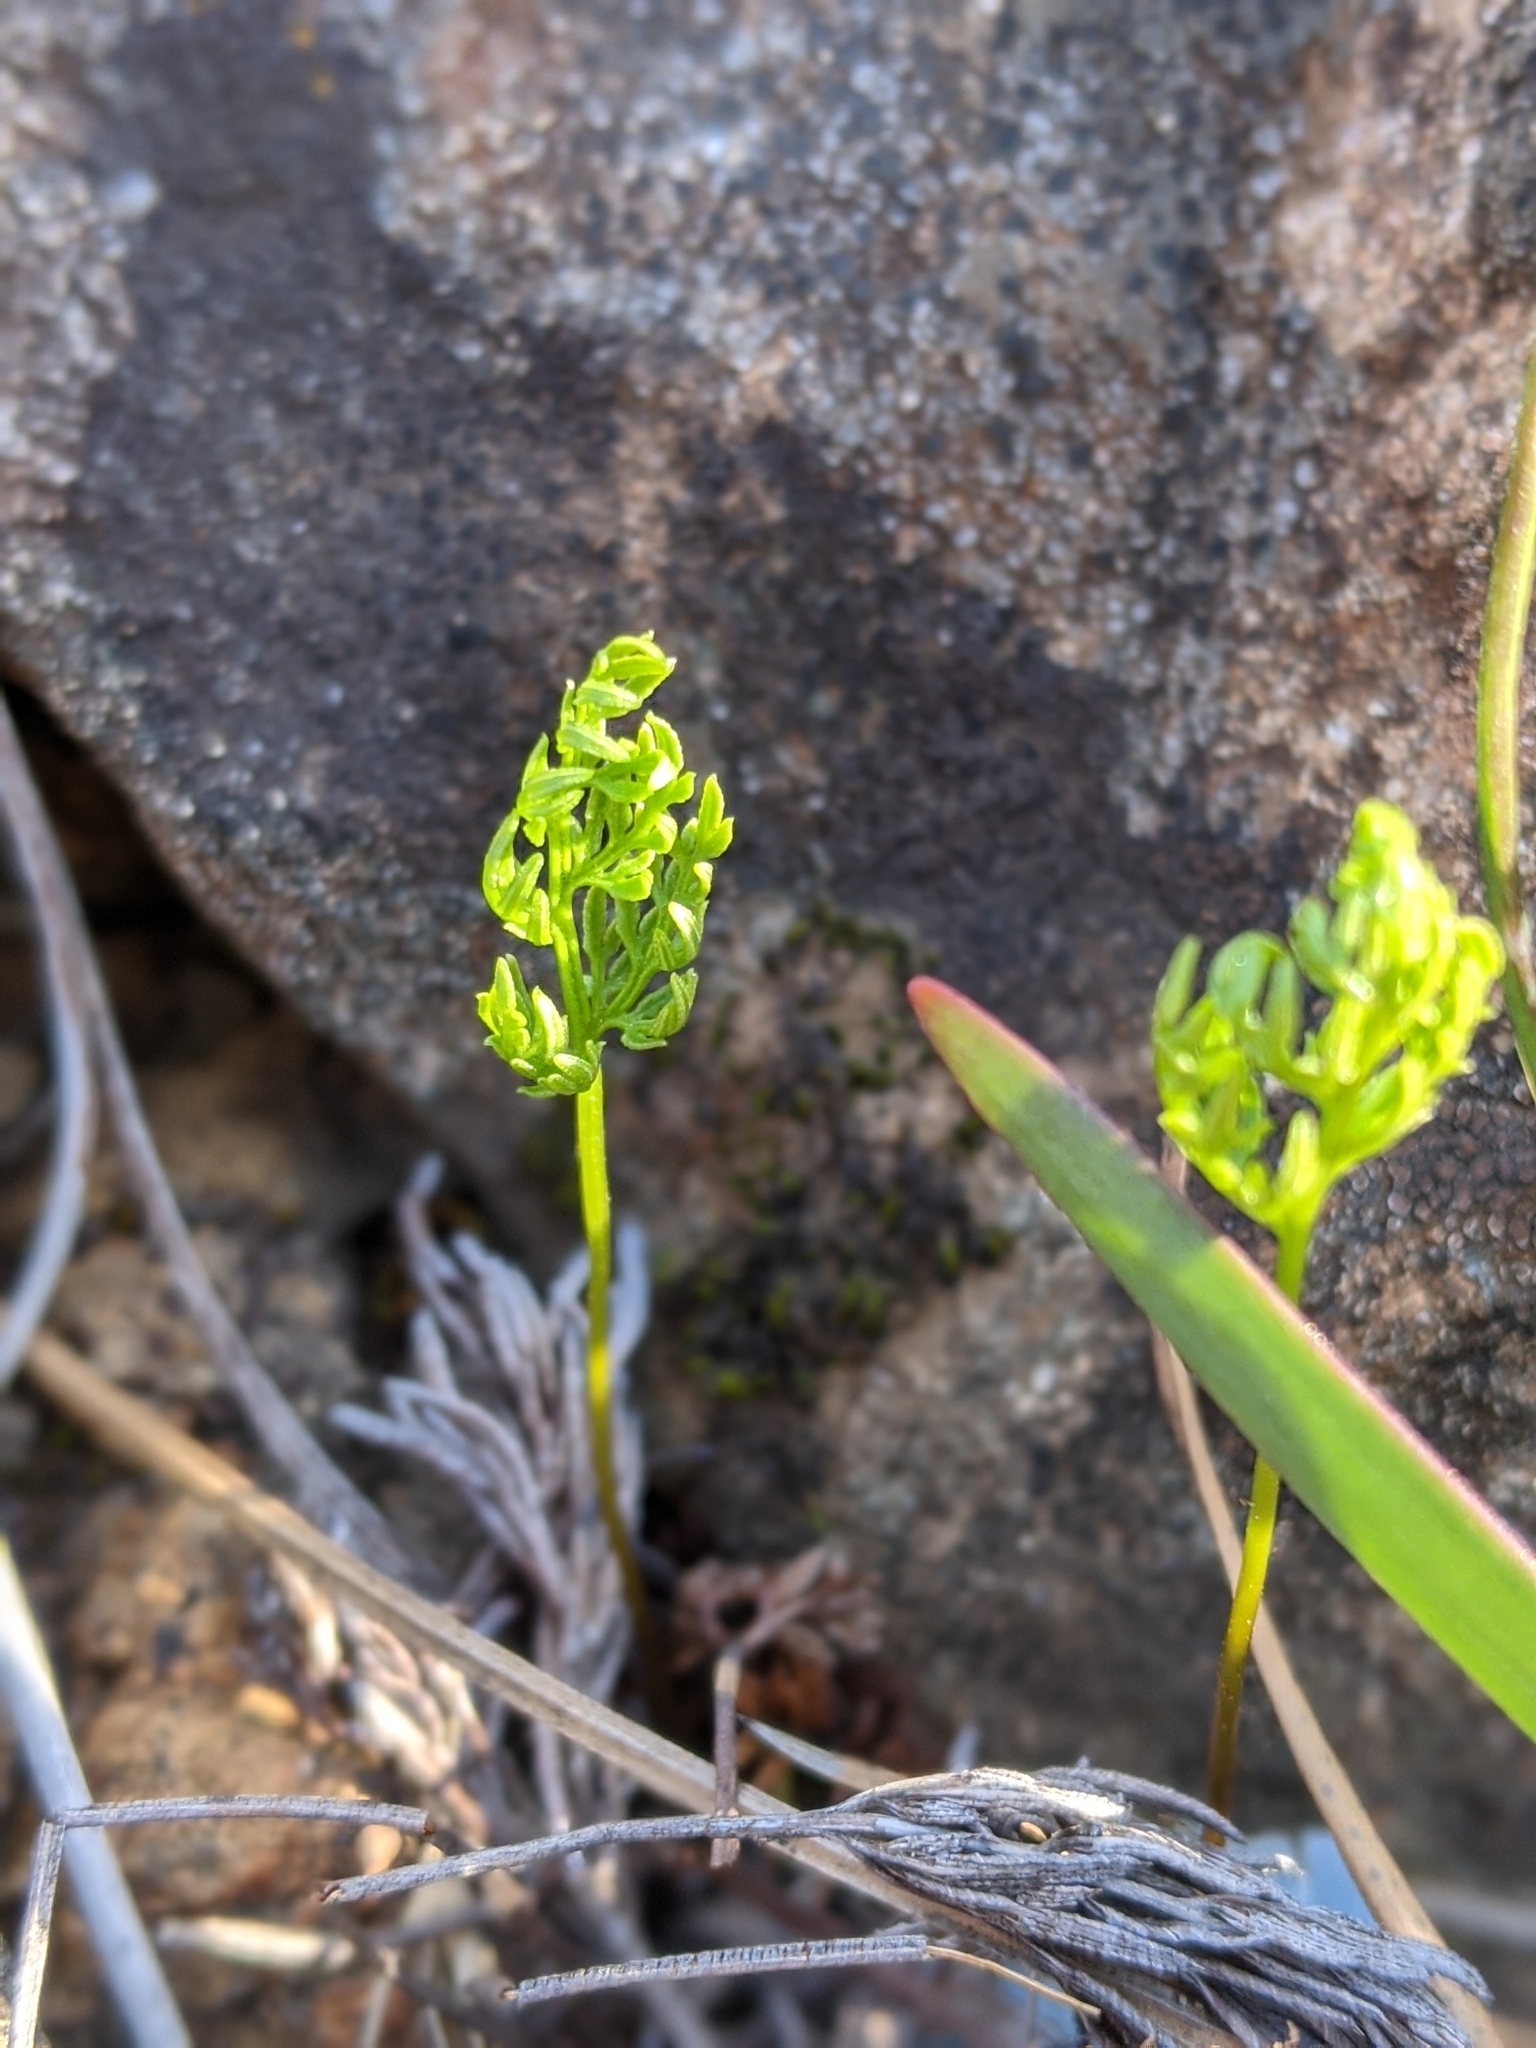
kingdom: Plantae
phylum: Tracheophyta
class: Polypodiopsida
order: Polypodiales
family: Pteridaceae
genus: Aspidotis
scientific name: Aspidotis densa
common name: Indian's dream
